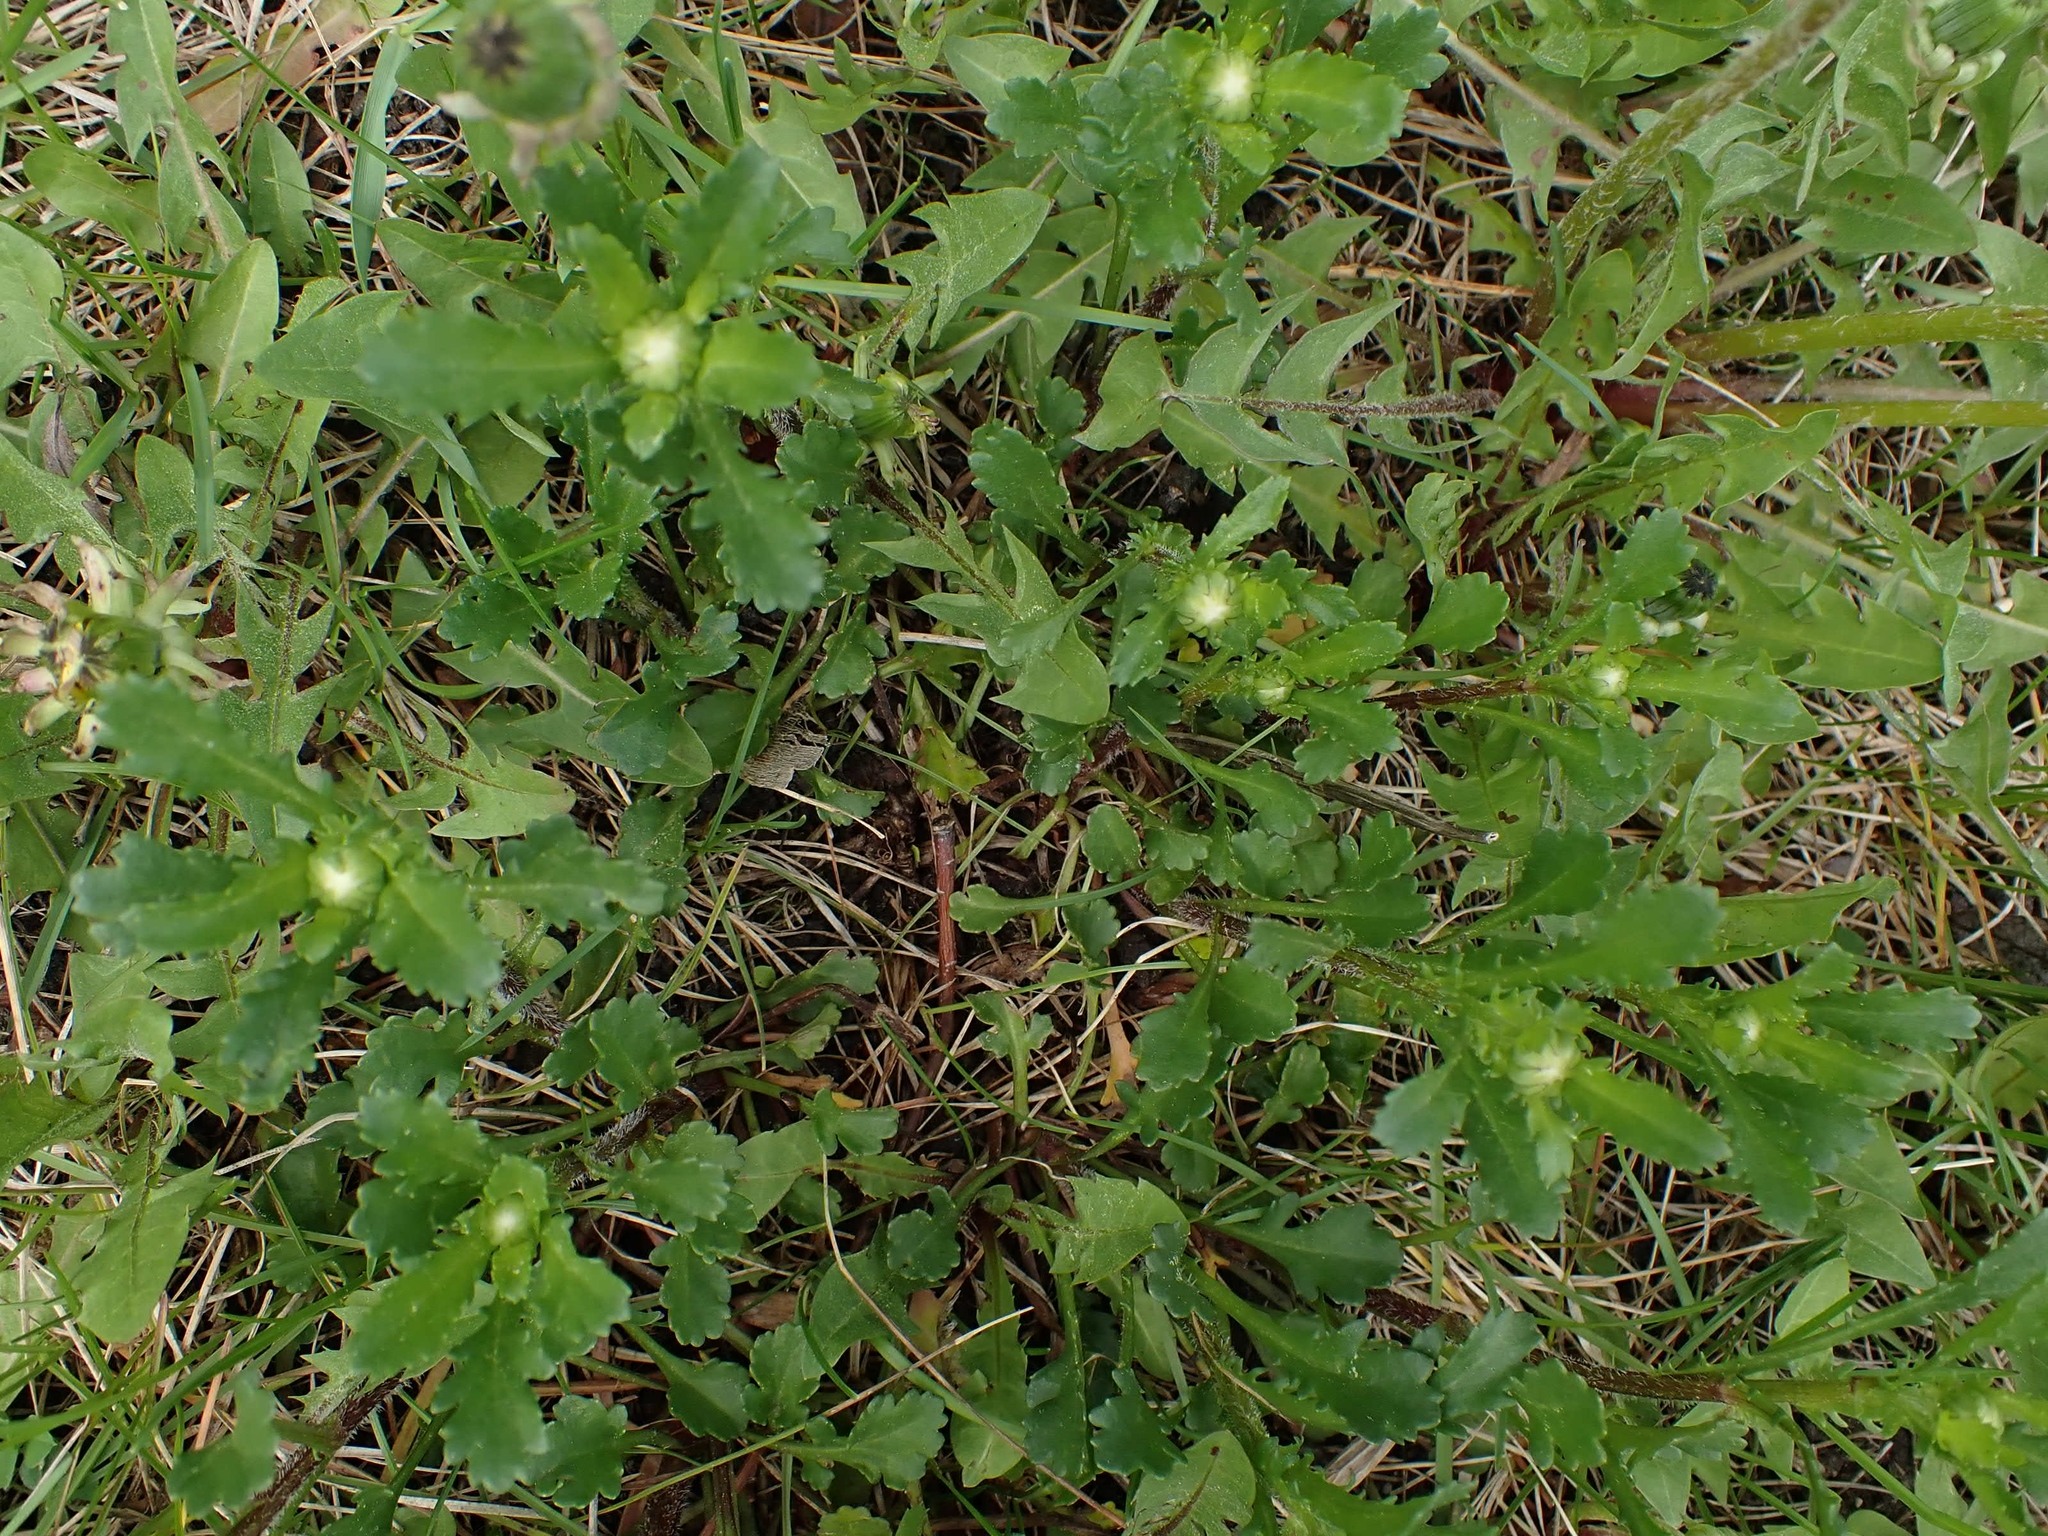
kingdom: Plantae
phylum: Tracheophyta
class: Magnoliopsida
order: Asterales
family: Asteraceae
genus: Leucanthemum
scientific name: Leucanthemum vulgare
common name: Oxeye daisy
